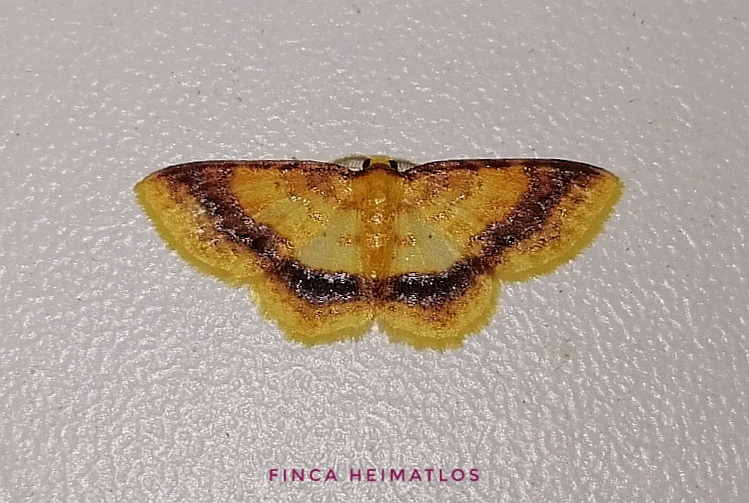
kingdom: Animalia
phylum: Arthropoda
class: Insecta
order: Lepidoptera
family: Geometridae
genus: Eois
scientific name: Eois fasciata
